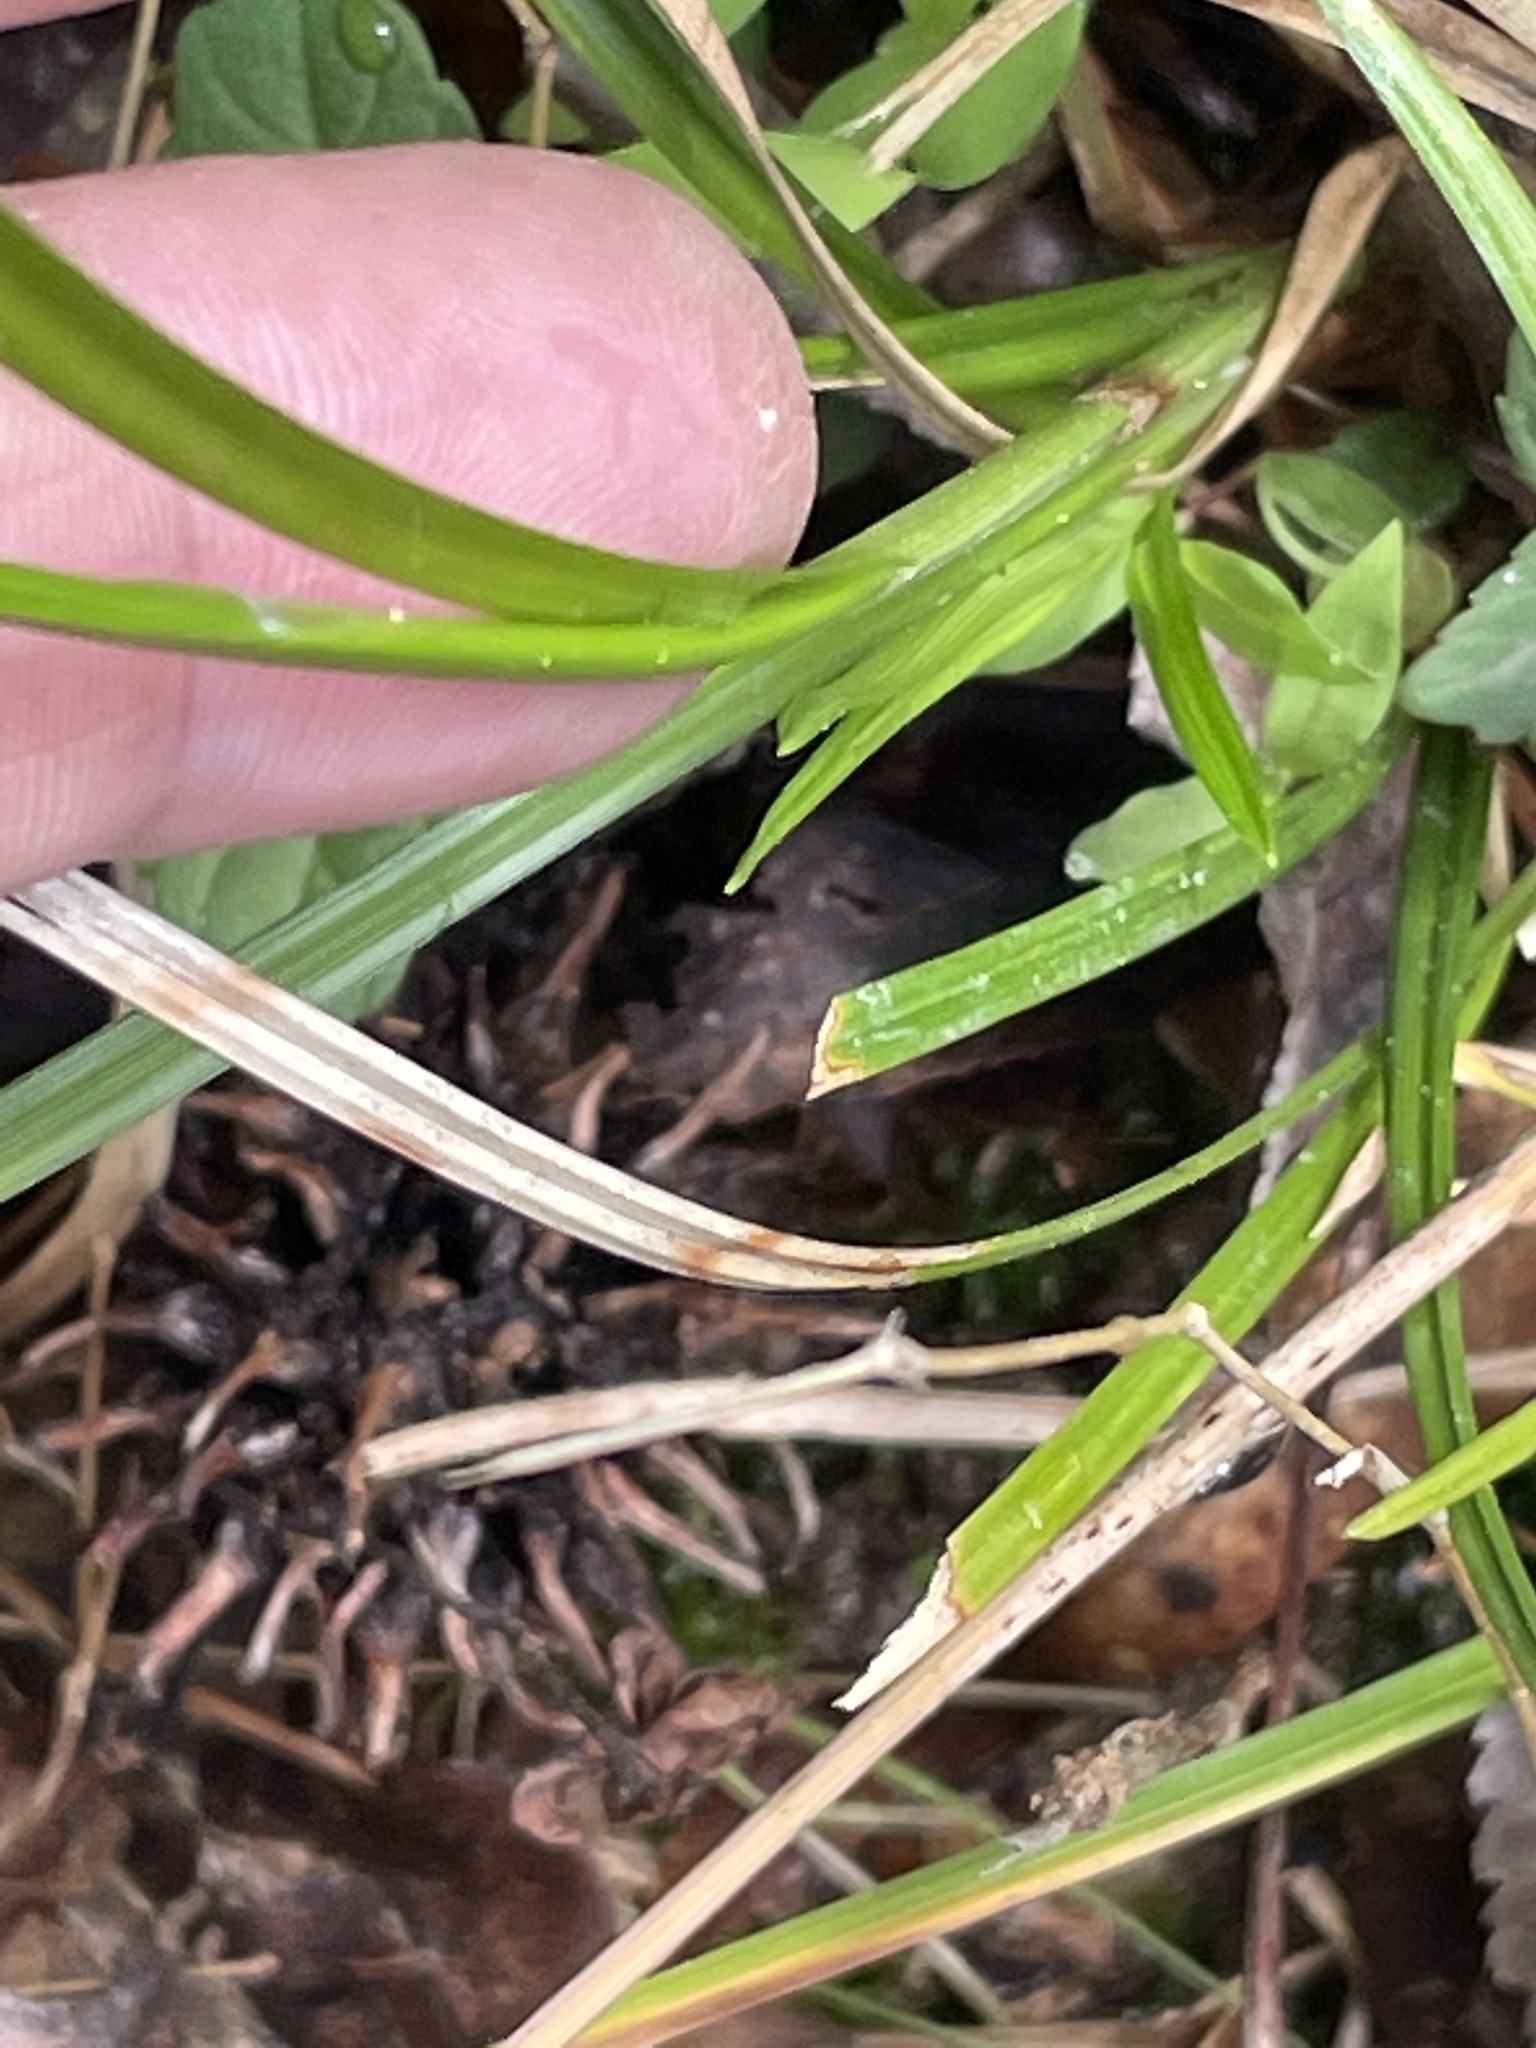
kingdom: Plantae
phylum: Tracheophyta
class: Liliopsida
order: Poales
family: Cyperaceae
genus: Carex
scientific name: Carex intumescens
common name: Greater bladder sedge
